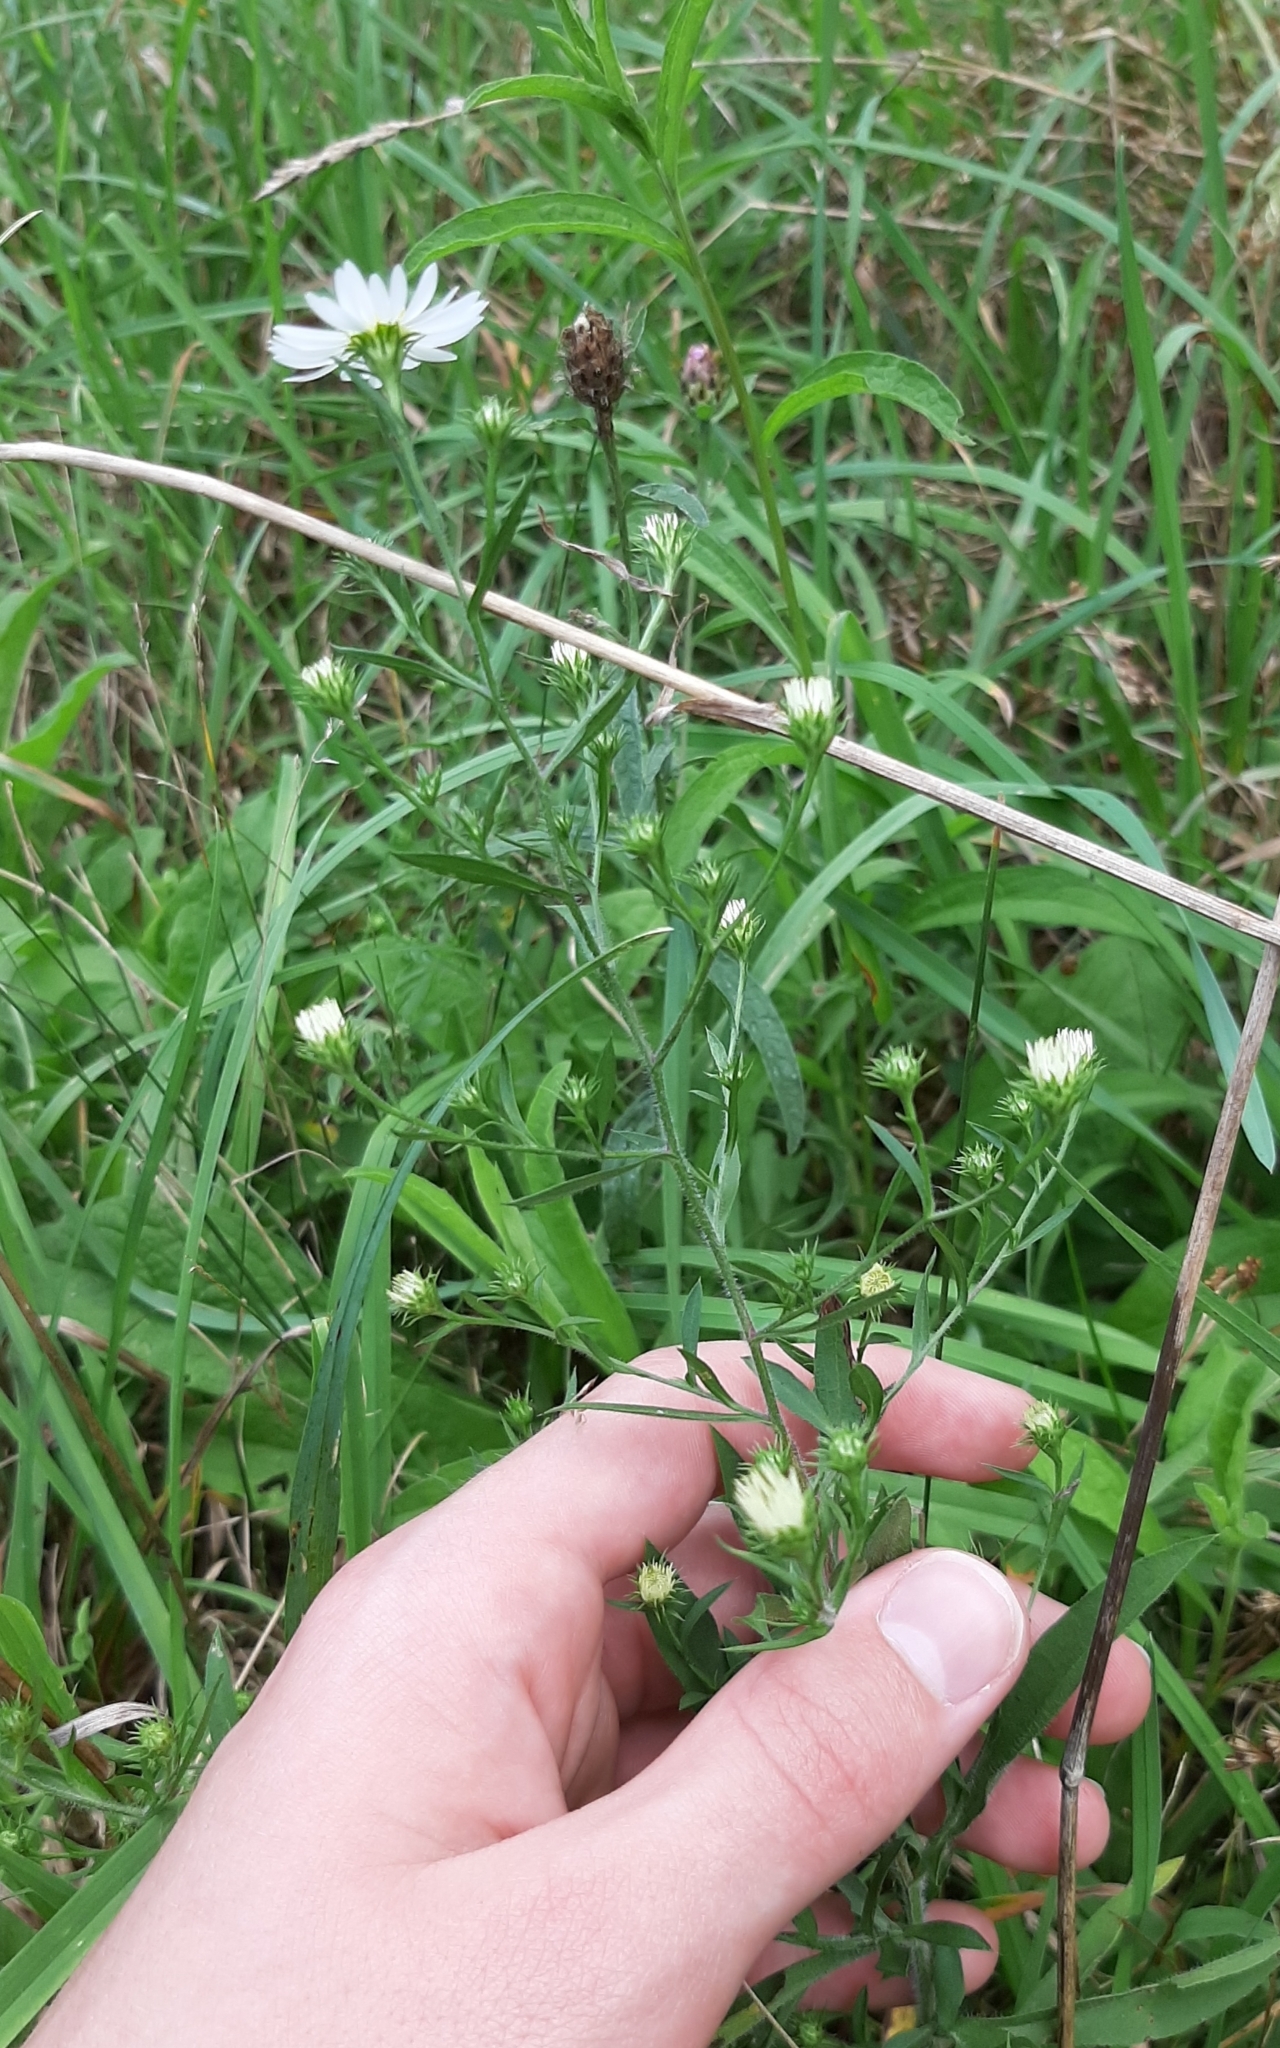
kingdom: Plantae
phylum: Tracheophyta
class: Magnoliopsida
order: Asterales
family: Asteraceae
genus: Symphyotrichum
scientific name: Symphyotrichum pilosum
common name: Awl aster
